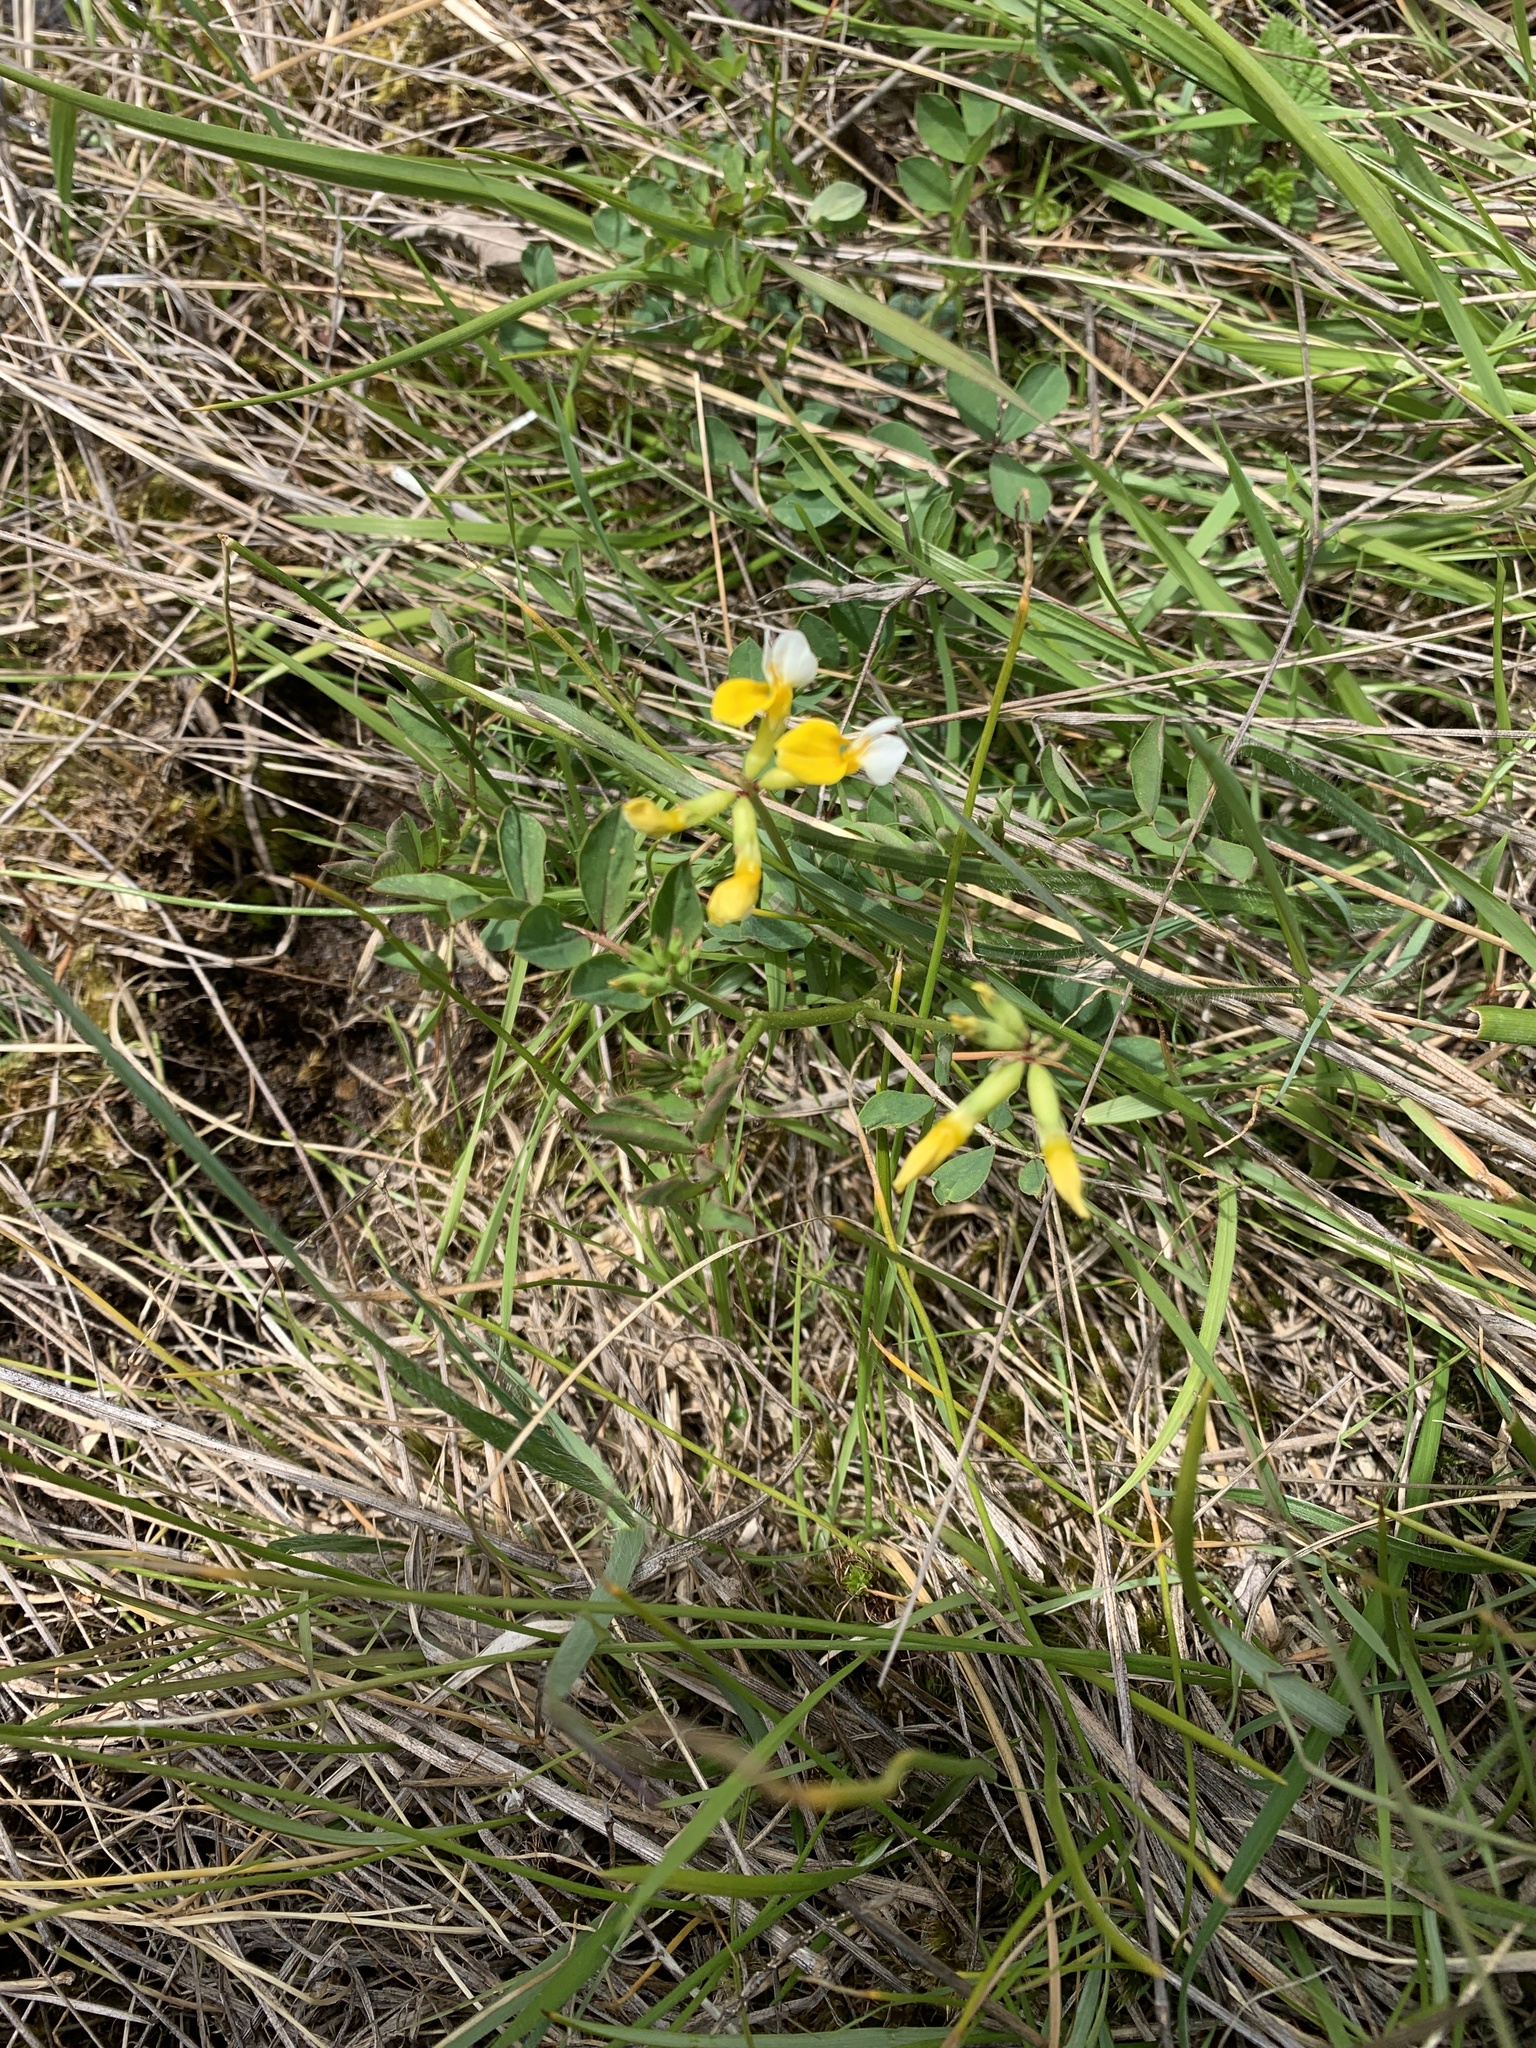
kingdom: Plantae
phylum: Tracheophyta
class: Magnoliopsida
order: Fabales
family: Fabaceae
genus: Hosackia
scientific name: Hosackia pinnata
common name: Bog bird's-foot trefoil
